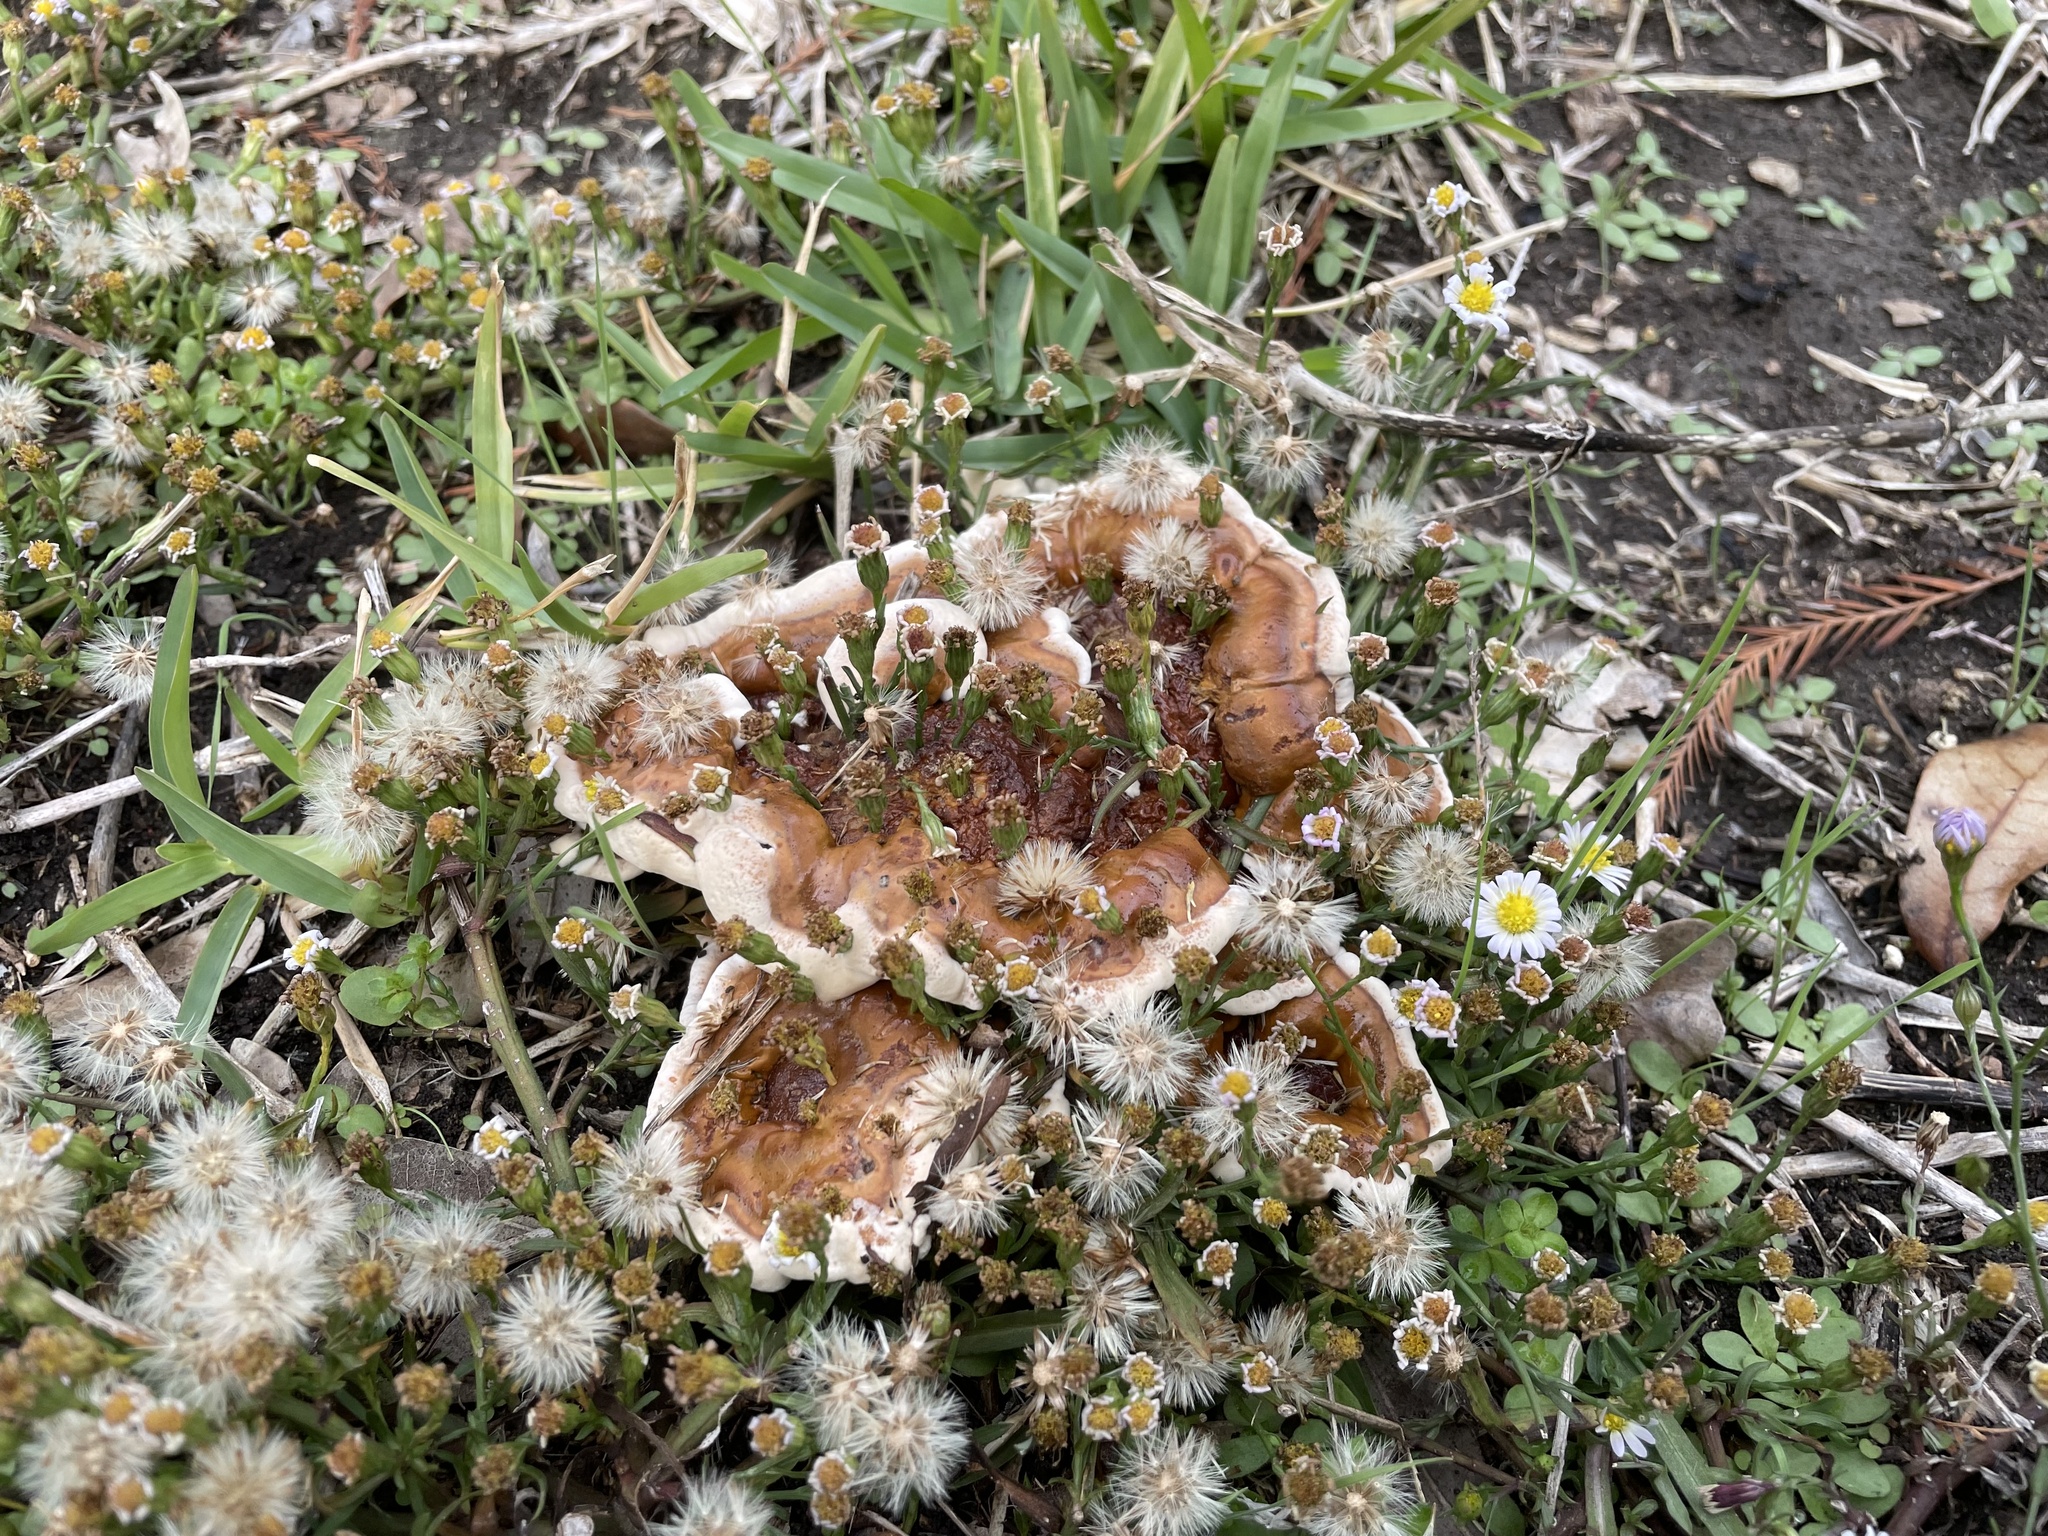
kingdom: Fungi
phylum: Basidiomycota
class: Agaricomycetes
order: Polyporales
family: Polyporaceae
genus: Ganoderma
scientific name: Ganoderma resinaceum
